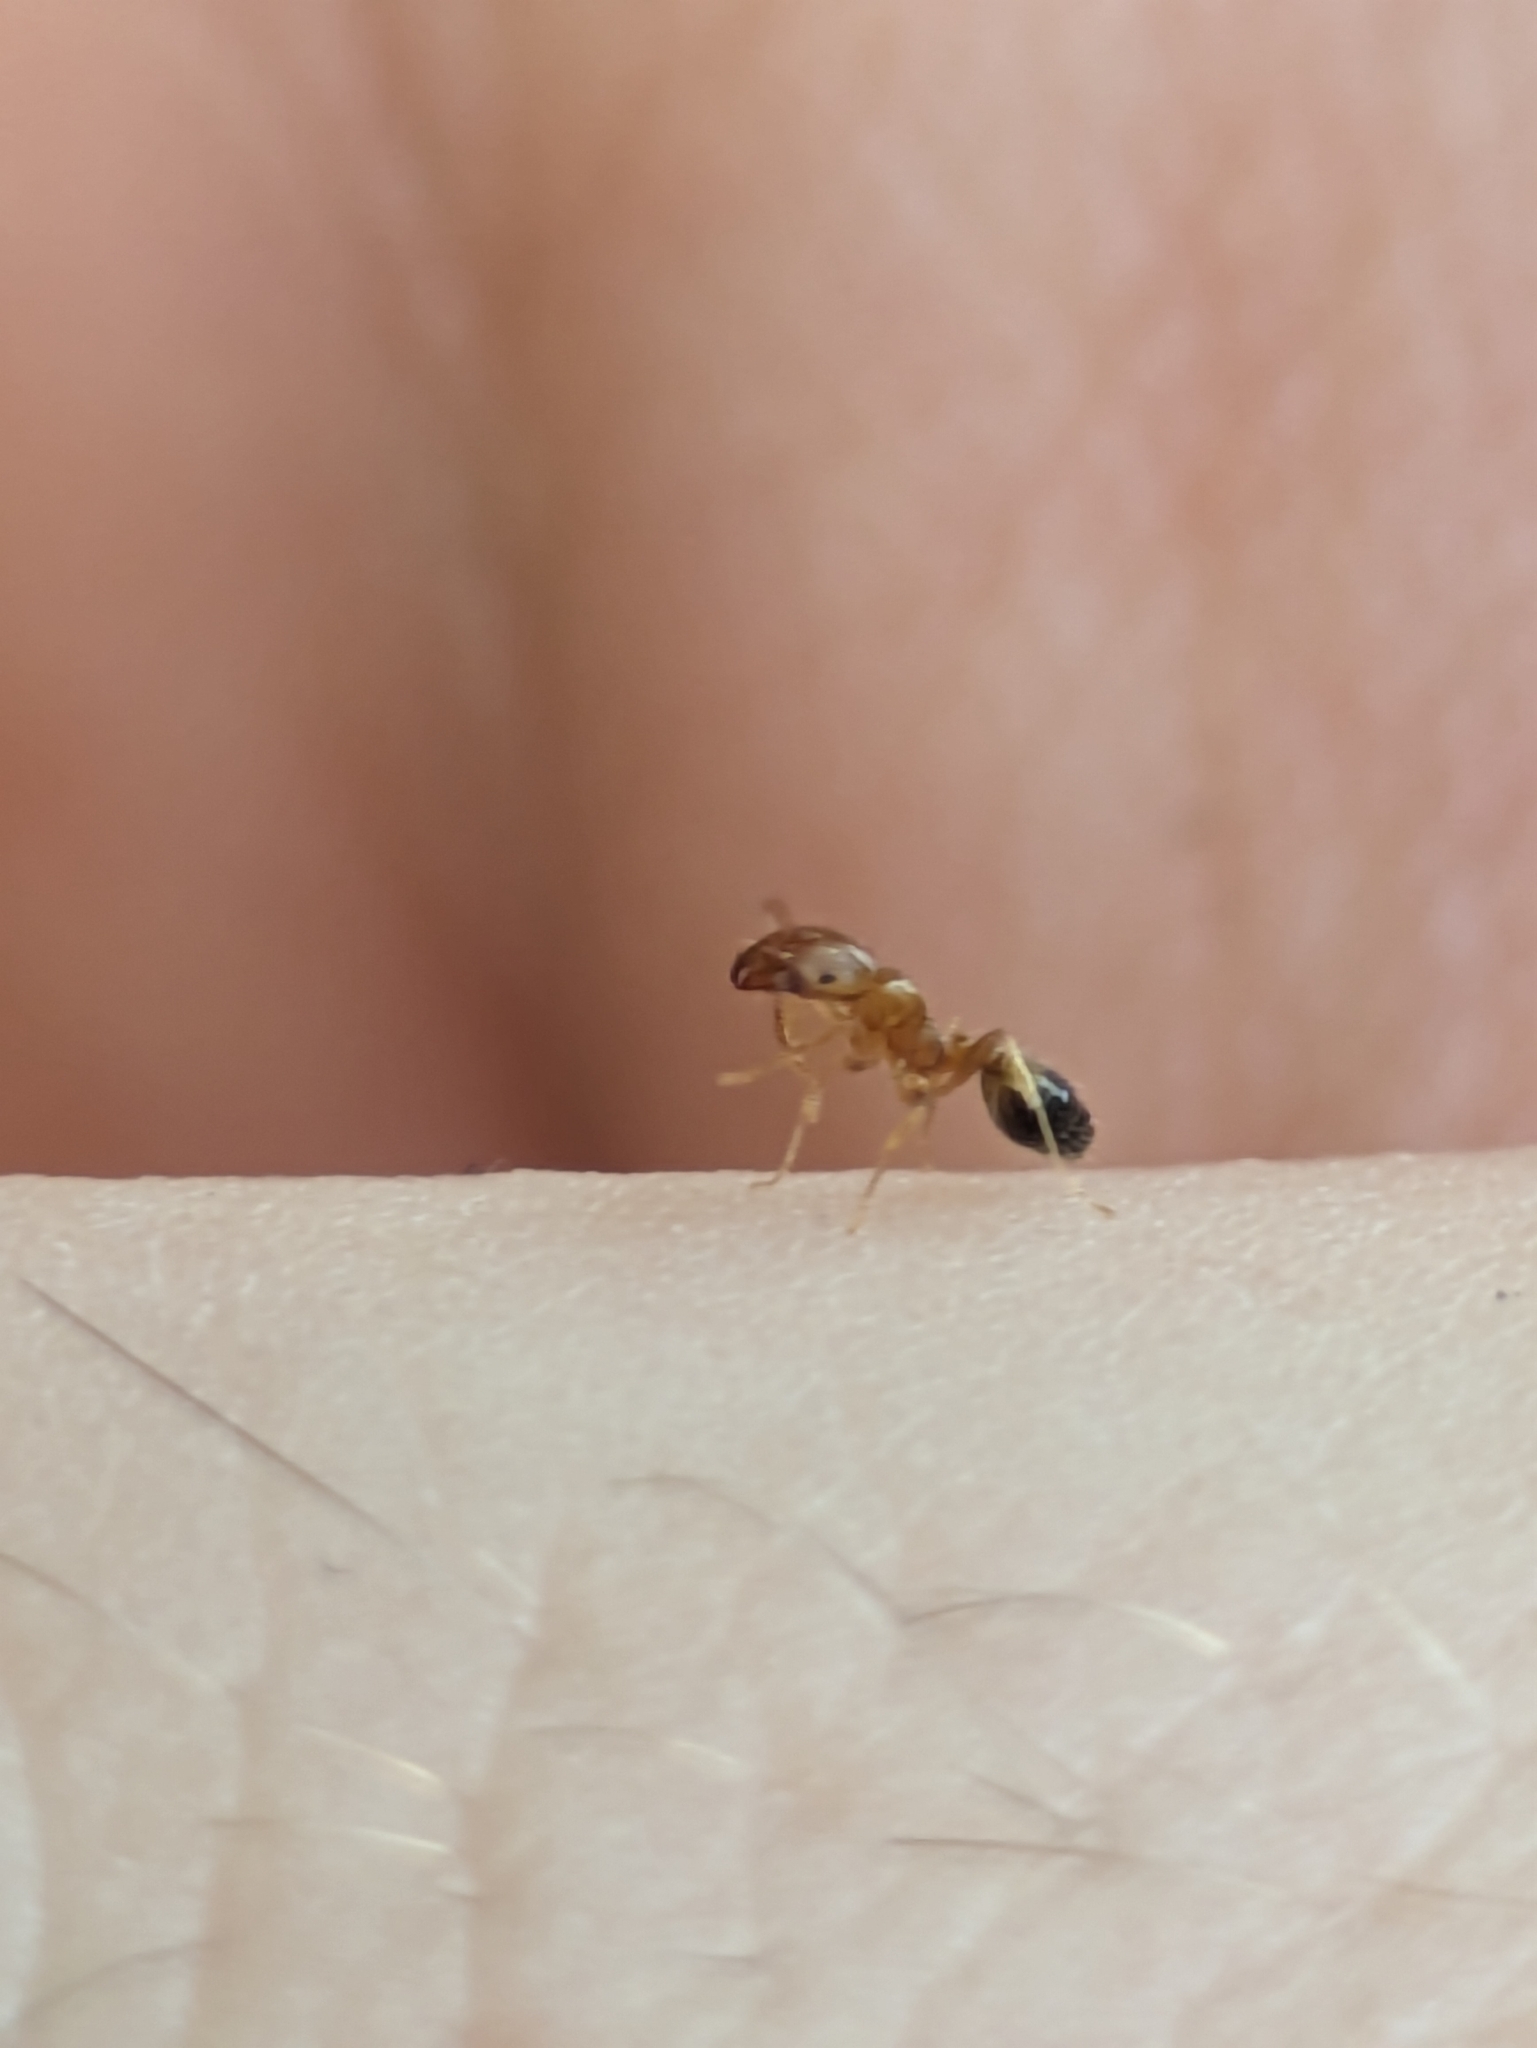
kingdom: Animalia
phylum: Arthropoda
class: Insecta
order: Hymenoptera
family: Formicidae
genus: Monomorium
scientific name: Monomorium destructor
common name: Destructive trailing ant
